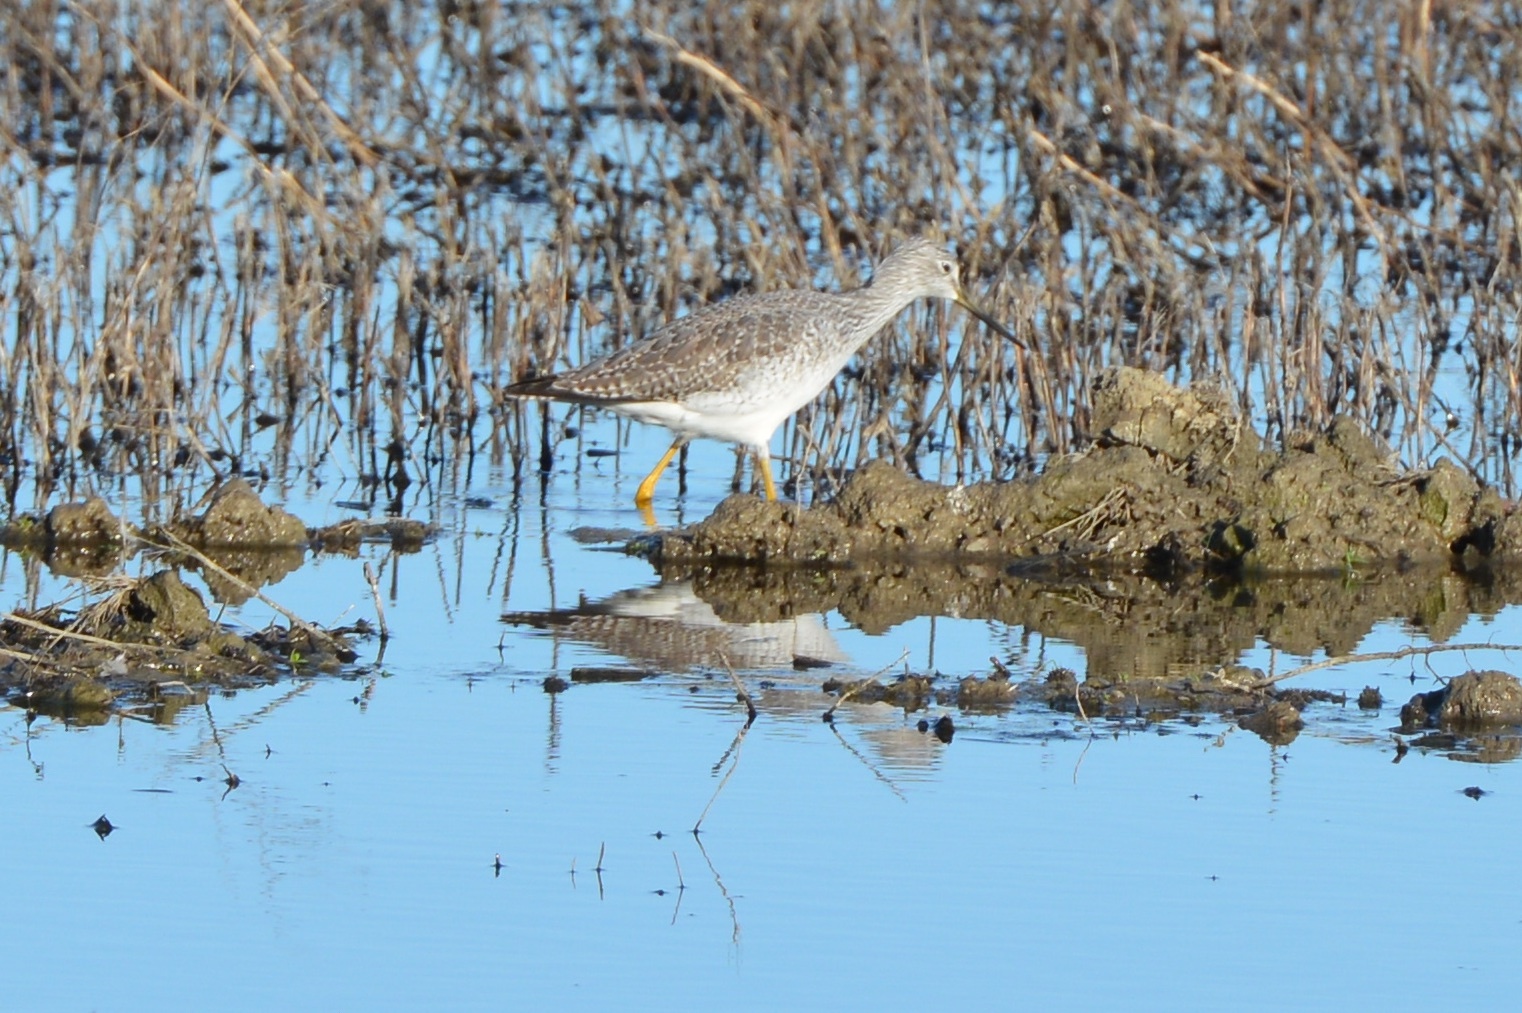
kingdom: Animalia
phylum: Chordata
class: Aves
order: Charadriiformes
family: Scolopacidae
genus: Tringa
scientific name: Tringa melanoleuca
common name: Greater yellowlegs
